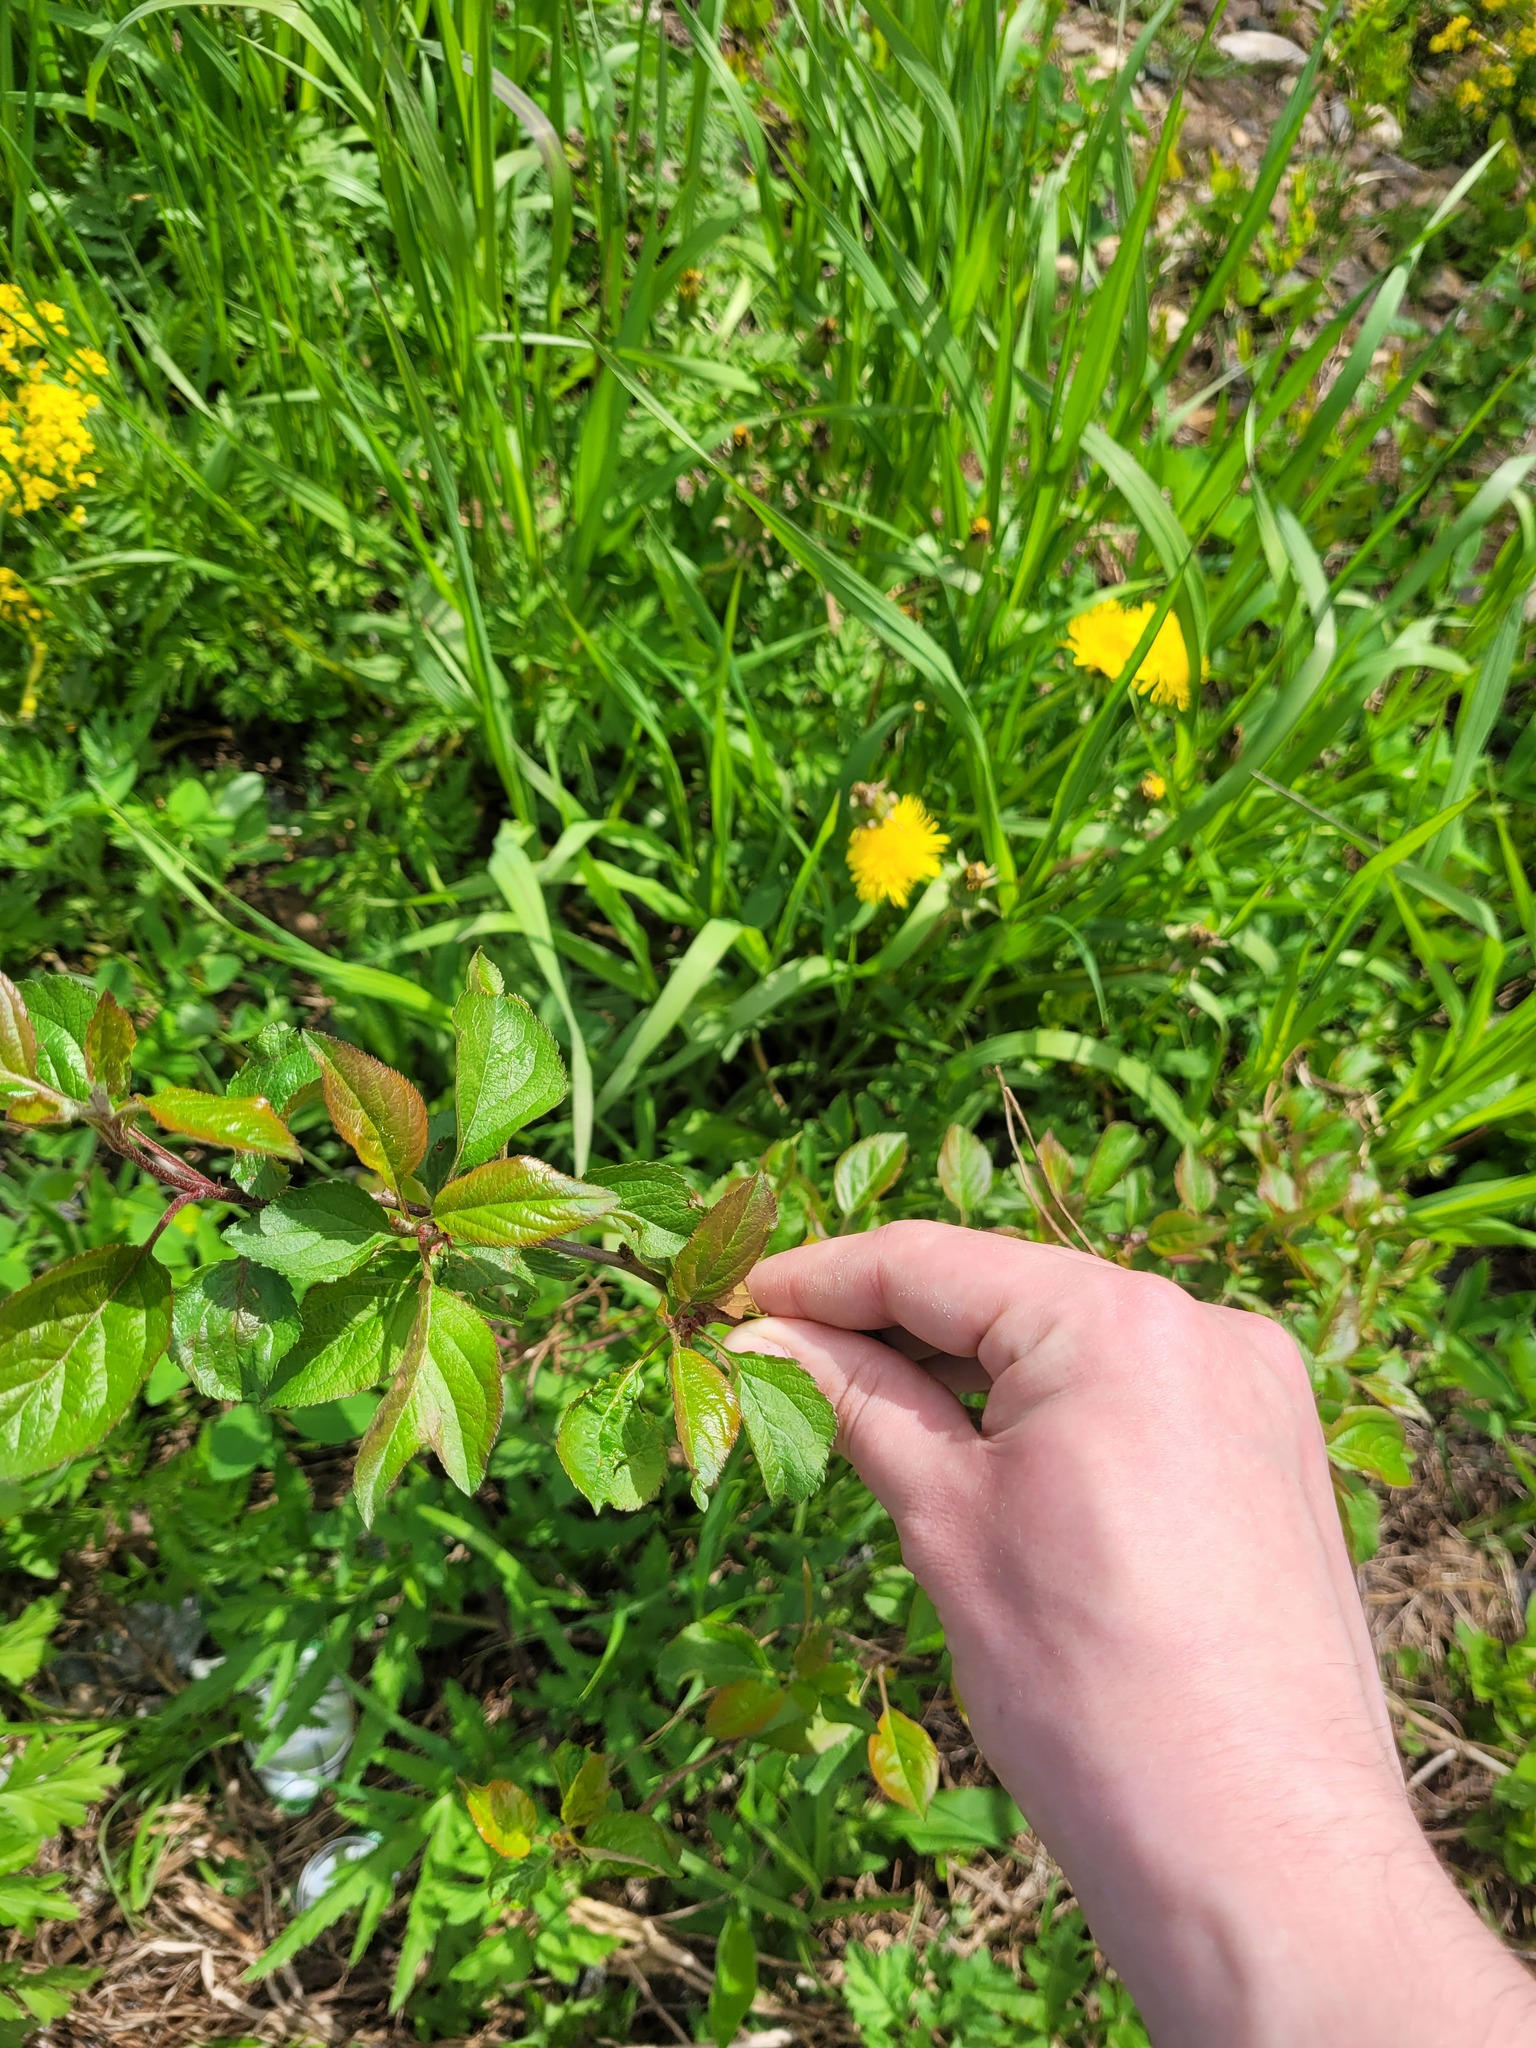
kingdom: Plantae
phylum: Tracheophyta
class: Magnoliopsida
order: Rosales
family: Rosaceae
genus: Malus
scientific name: Malus domestica
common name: Apple
